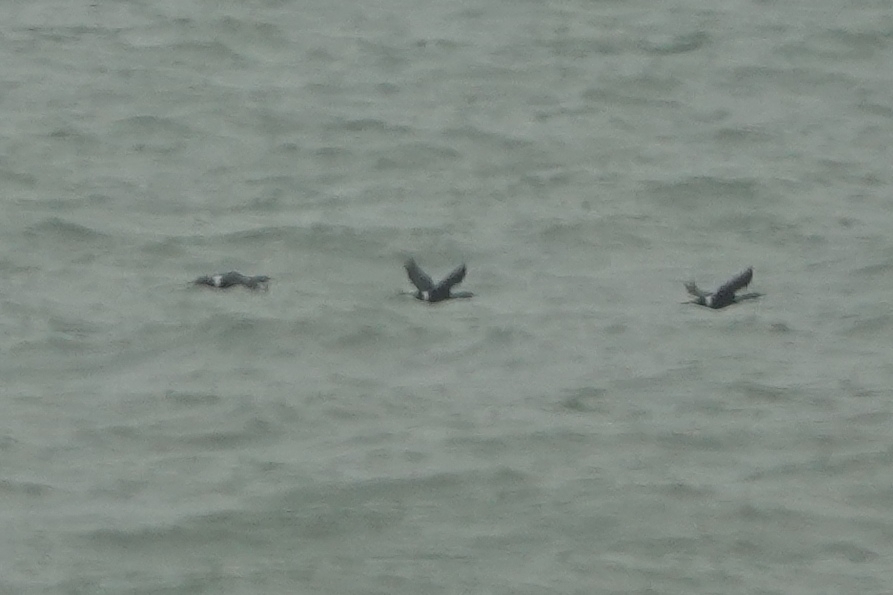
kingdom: Animalia
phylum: Chordata
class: Aves
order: Suliformes
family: Phalacrocoracidae
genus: Phalacrocorax
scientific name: Phalacrocorax pelagicus
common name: Pelagic cormorant
